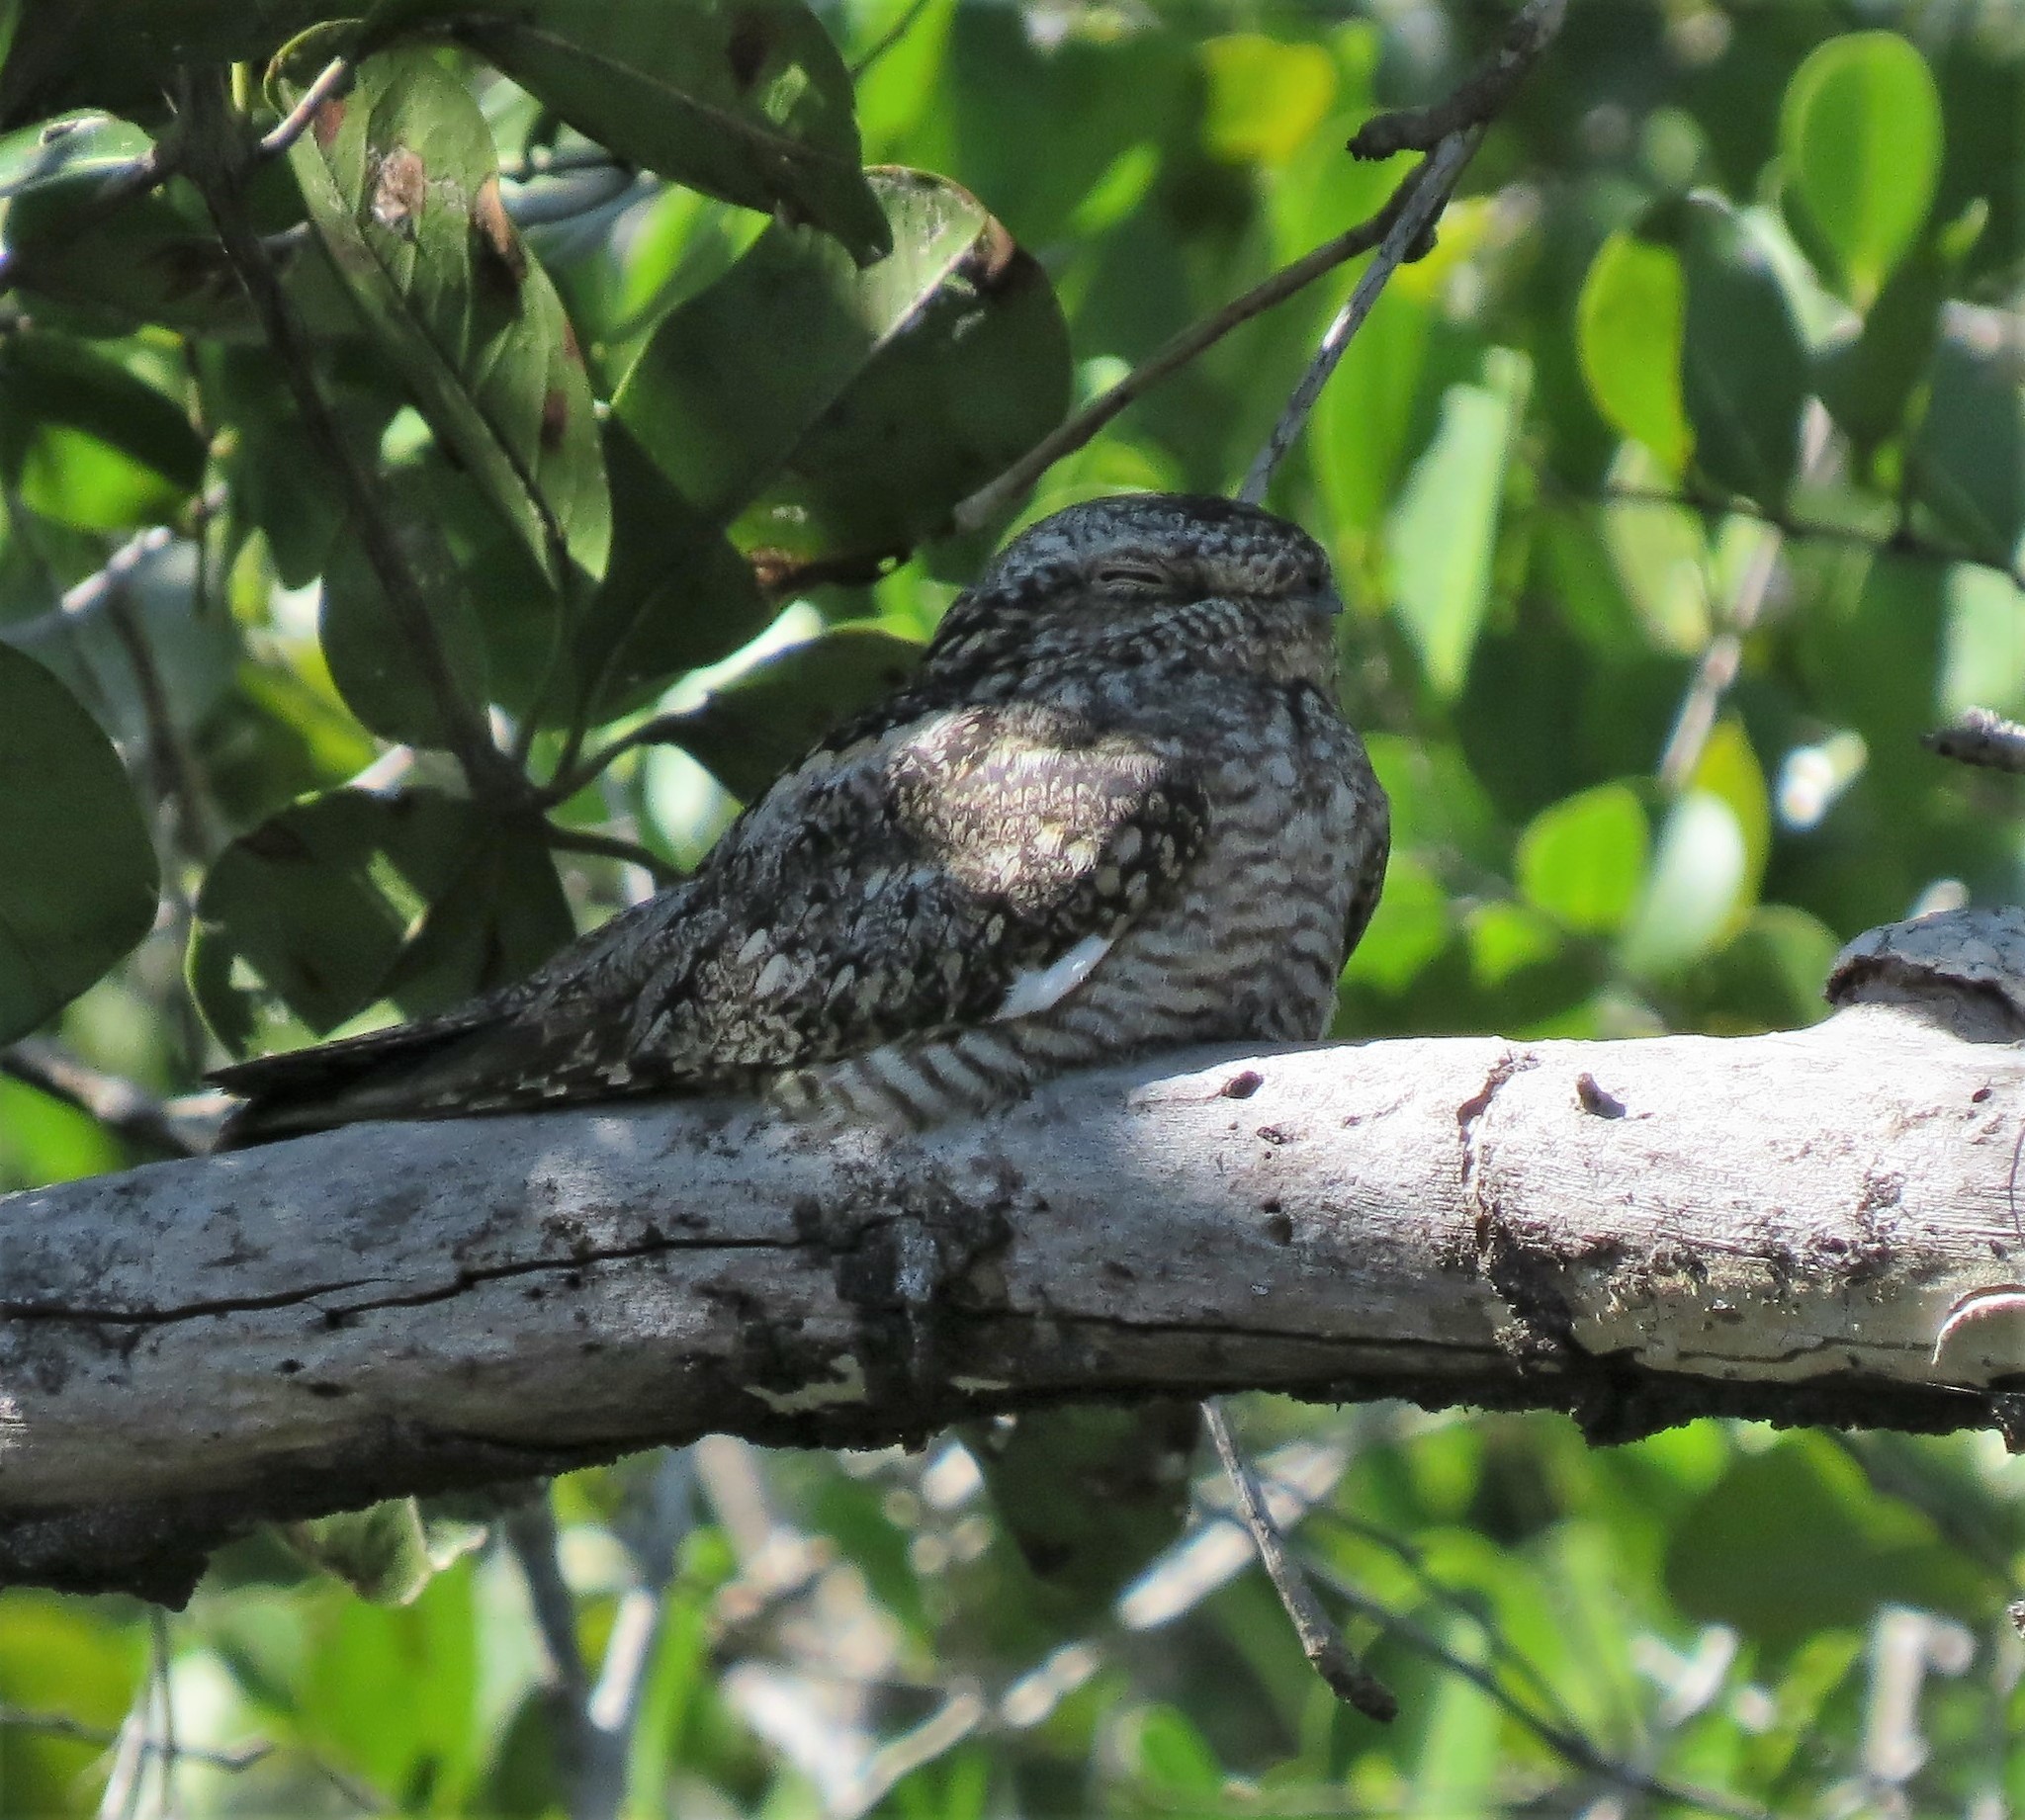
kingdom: Animalia
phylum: Chordata
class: Aves
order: Caprimulgiformes
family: Caprimulgidae
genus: Chordeiles
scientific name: Chordeiles acutipennis
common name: Lesser nighthawk
